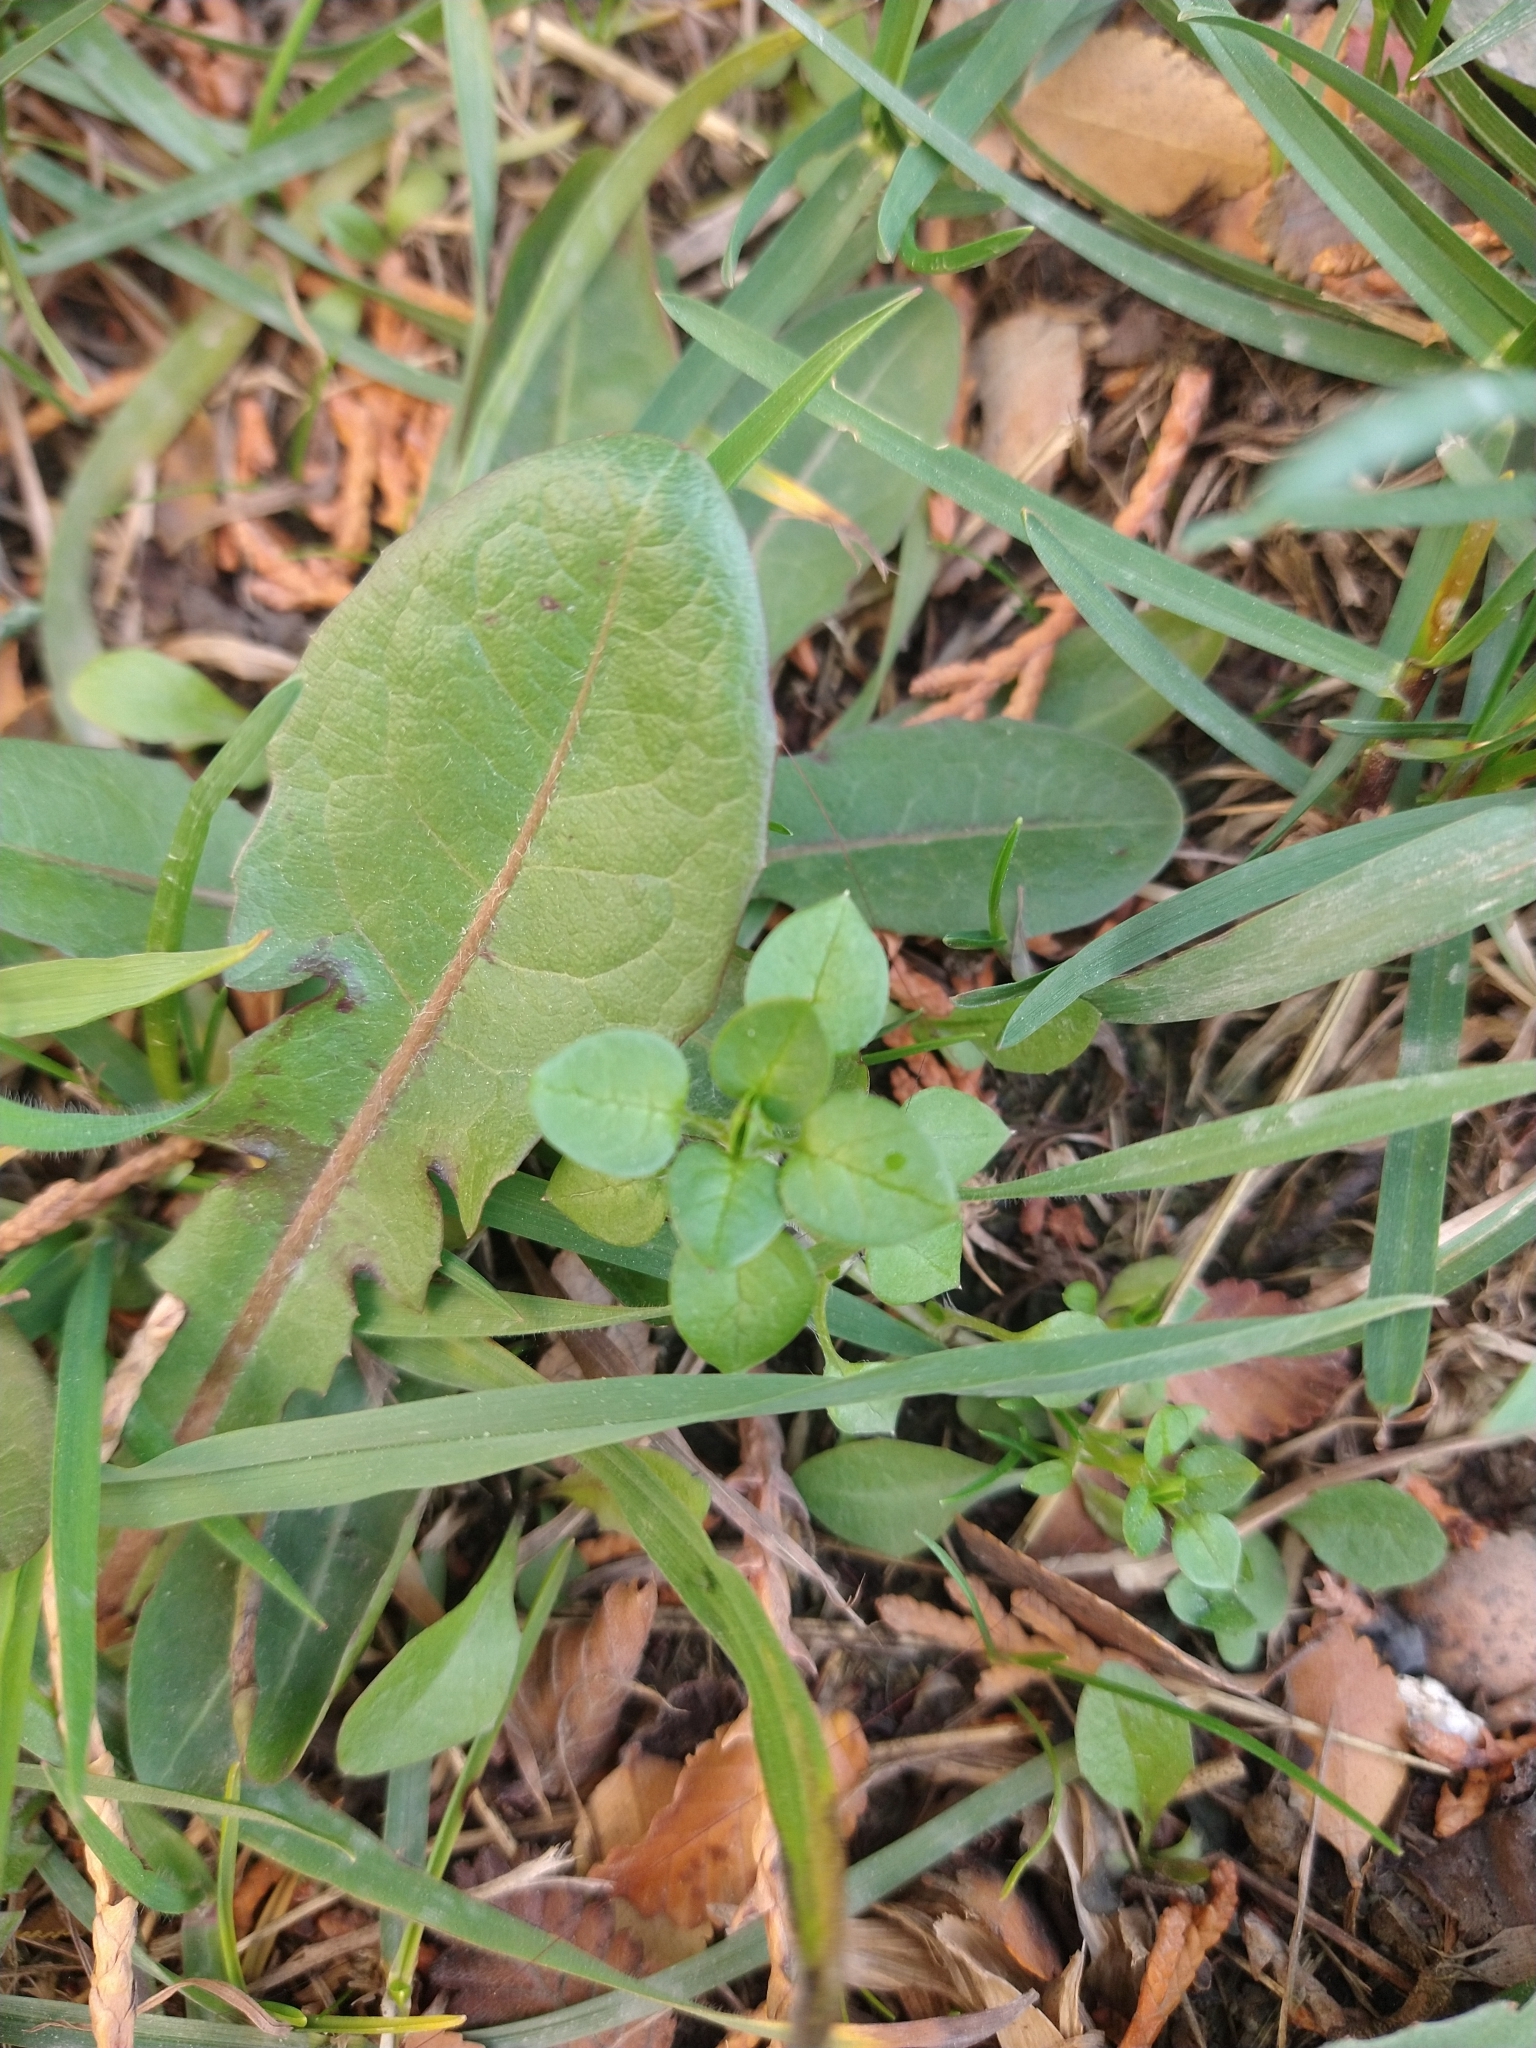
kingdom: Plantae
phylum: Tracheophyta
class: Magnoliopsida
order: Caryophyllales
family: Caryophyllaceae
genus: Stellaria
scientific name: Stellaria media
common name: Common chickweed
